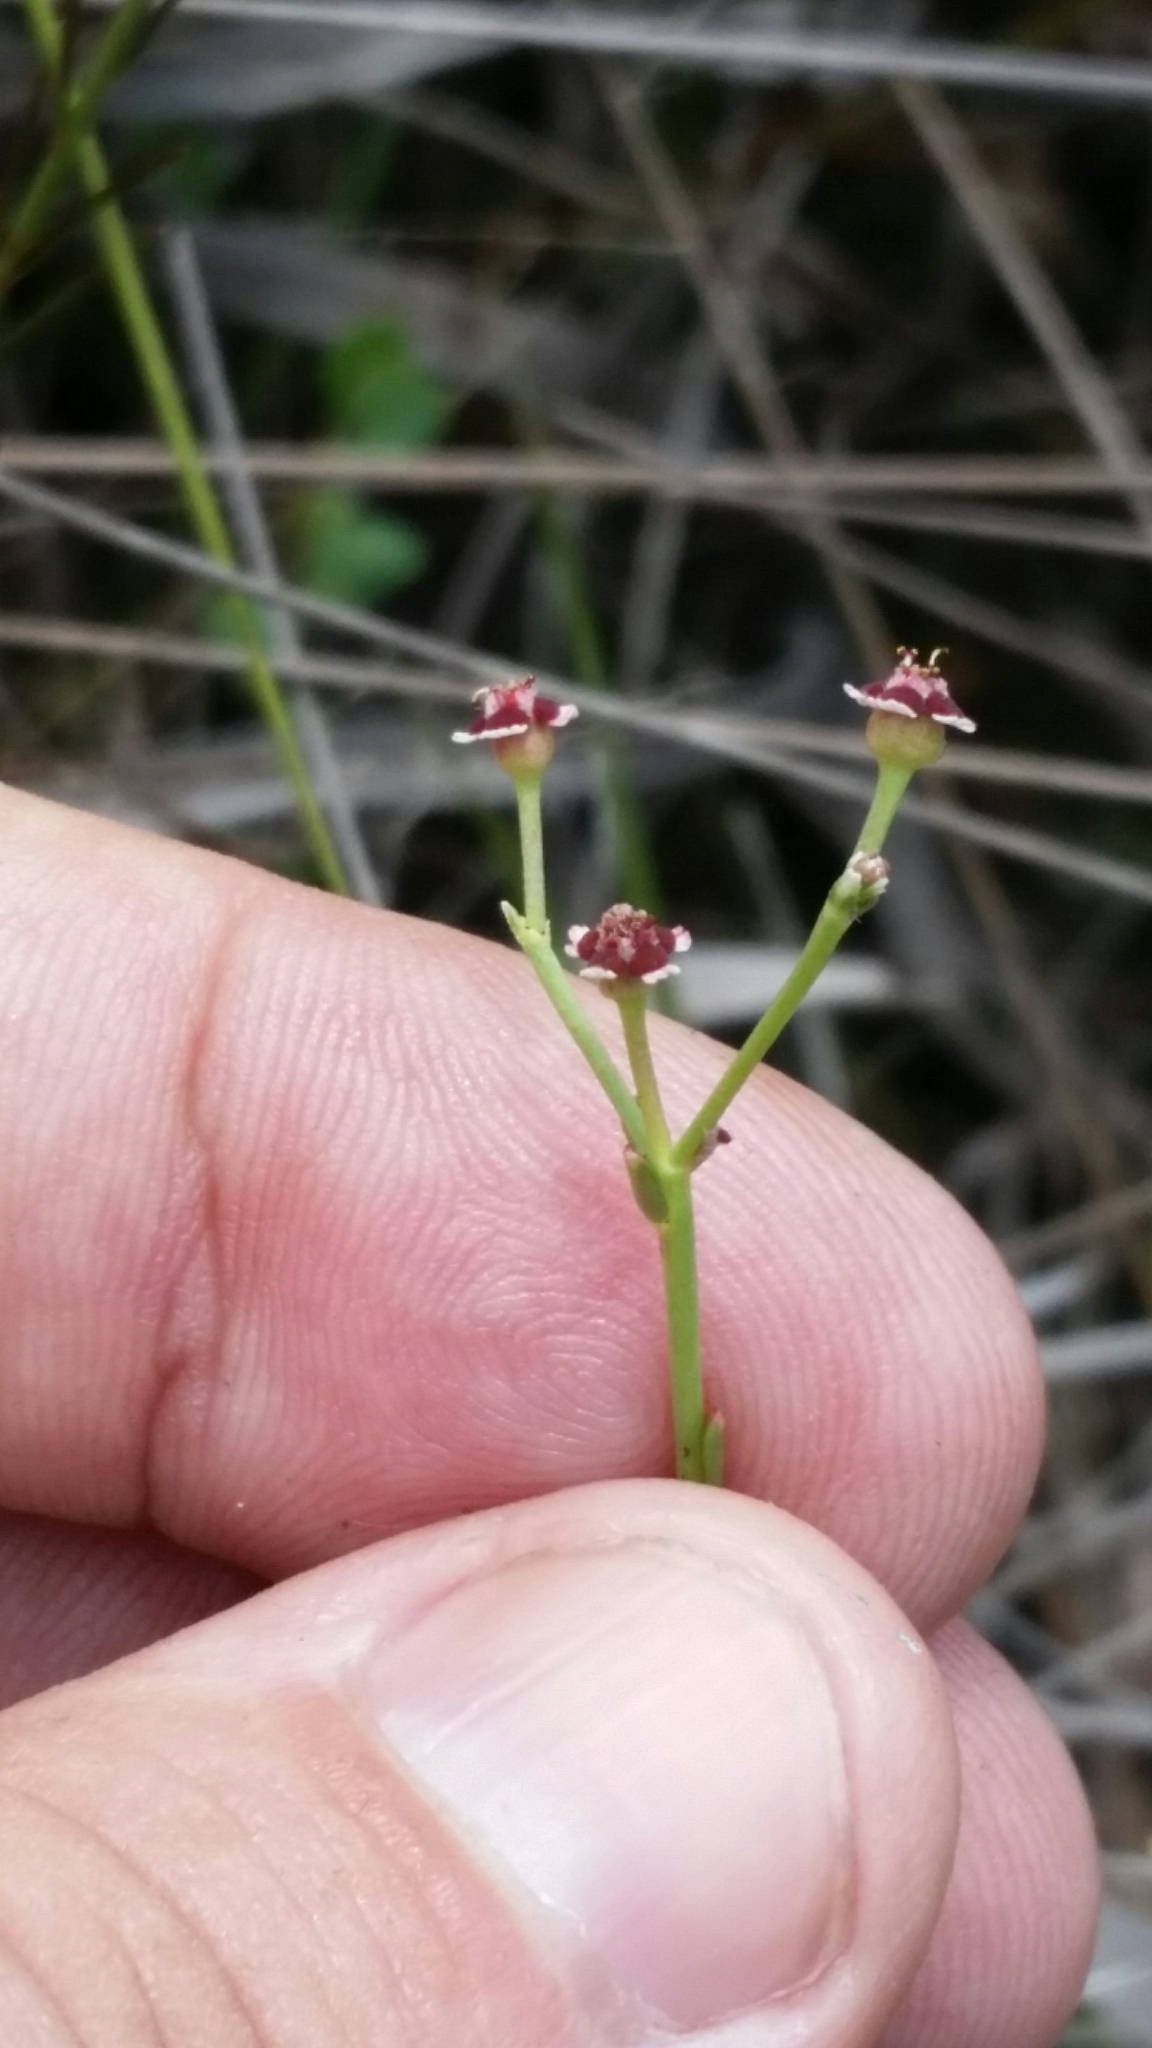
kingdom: Plantae
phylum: Tracheophyta
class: Magnoliopsida
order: Malpighiales
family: Euphorbiaceae
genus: Euphorbia
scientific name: Euphorbia polyphylla
